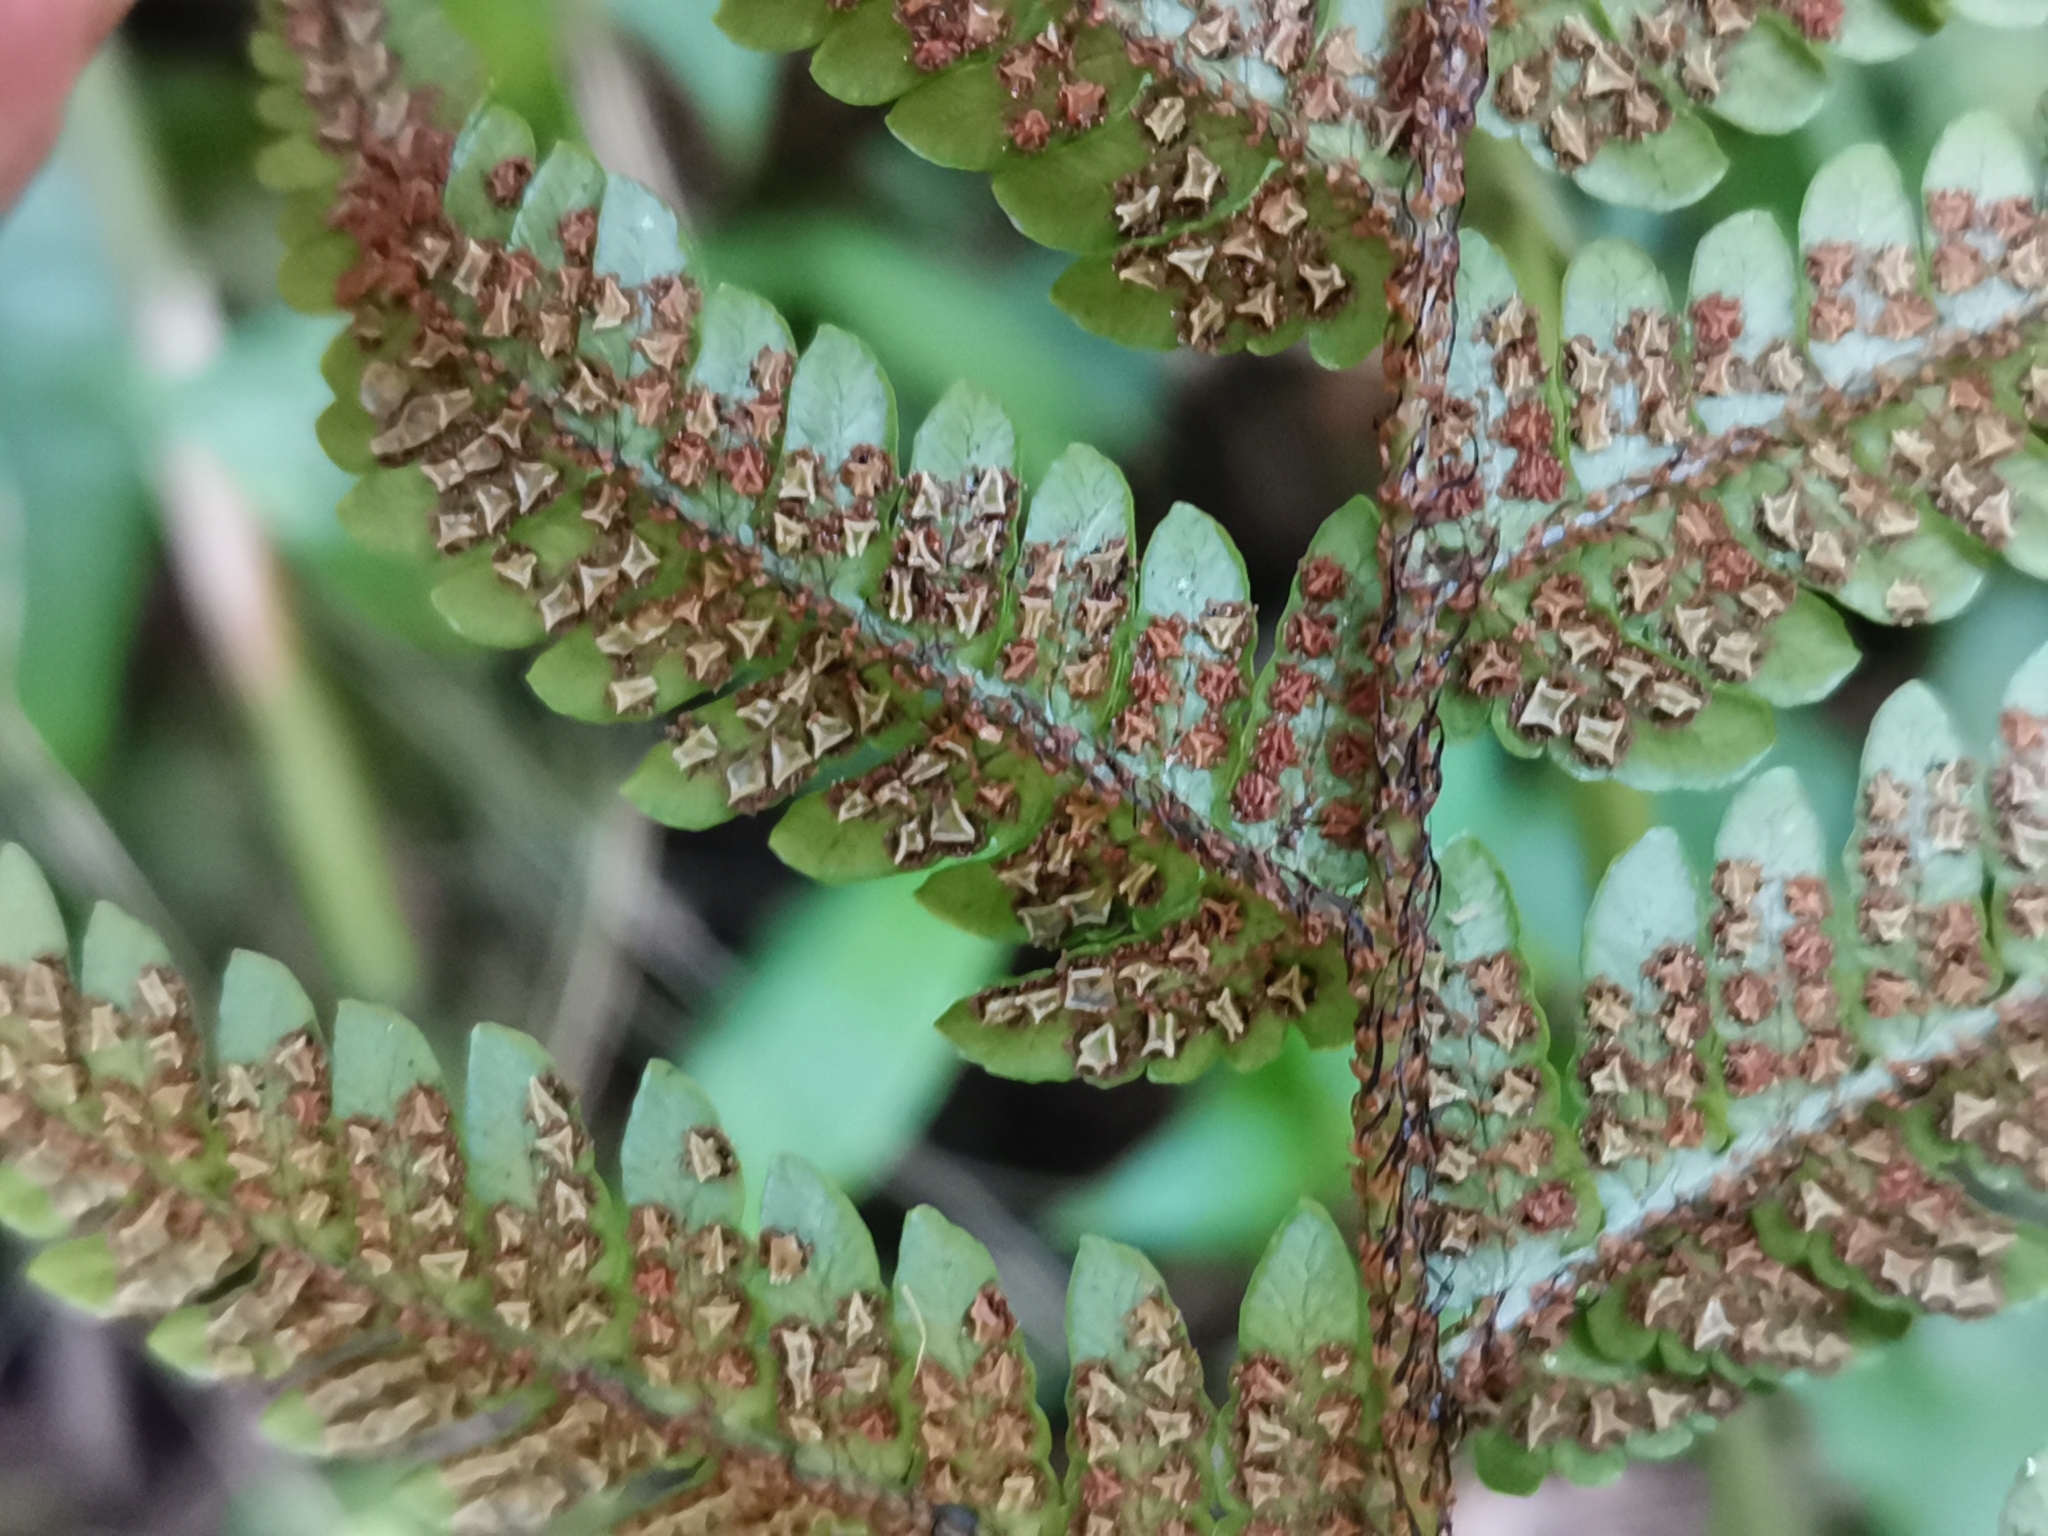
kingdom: Plantae
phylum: Tracheophyta
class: Polypodiopsida
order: Polypodiales
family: Dryopteridaceae
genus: Dryopteris
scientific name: Dryopteris bissetiana
